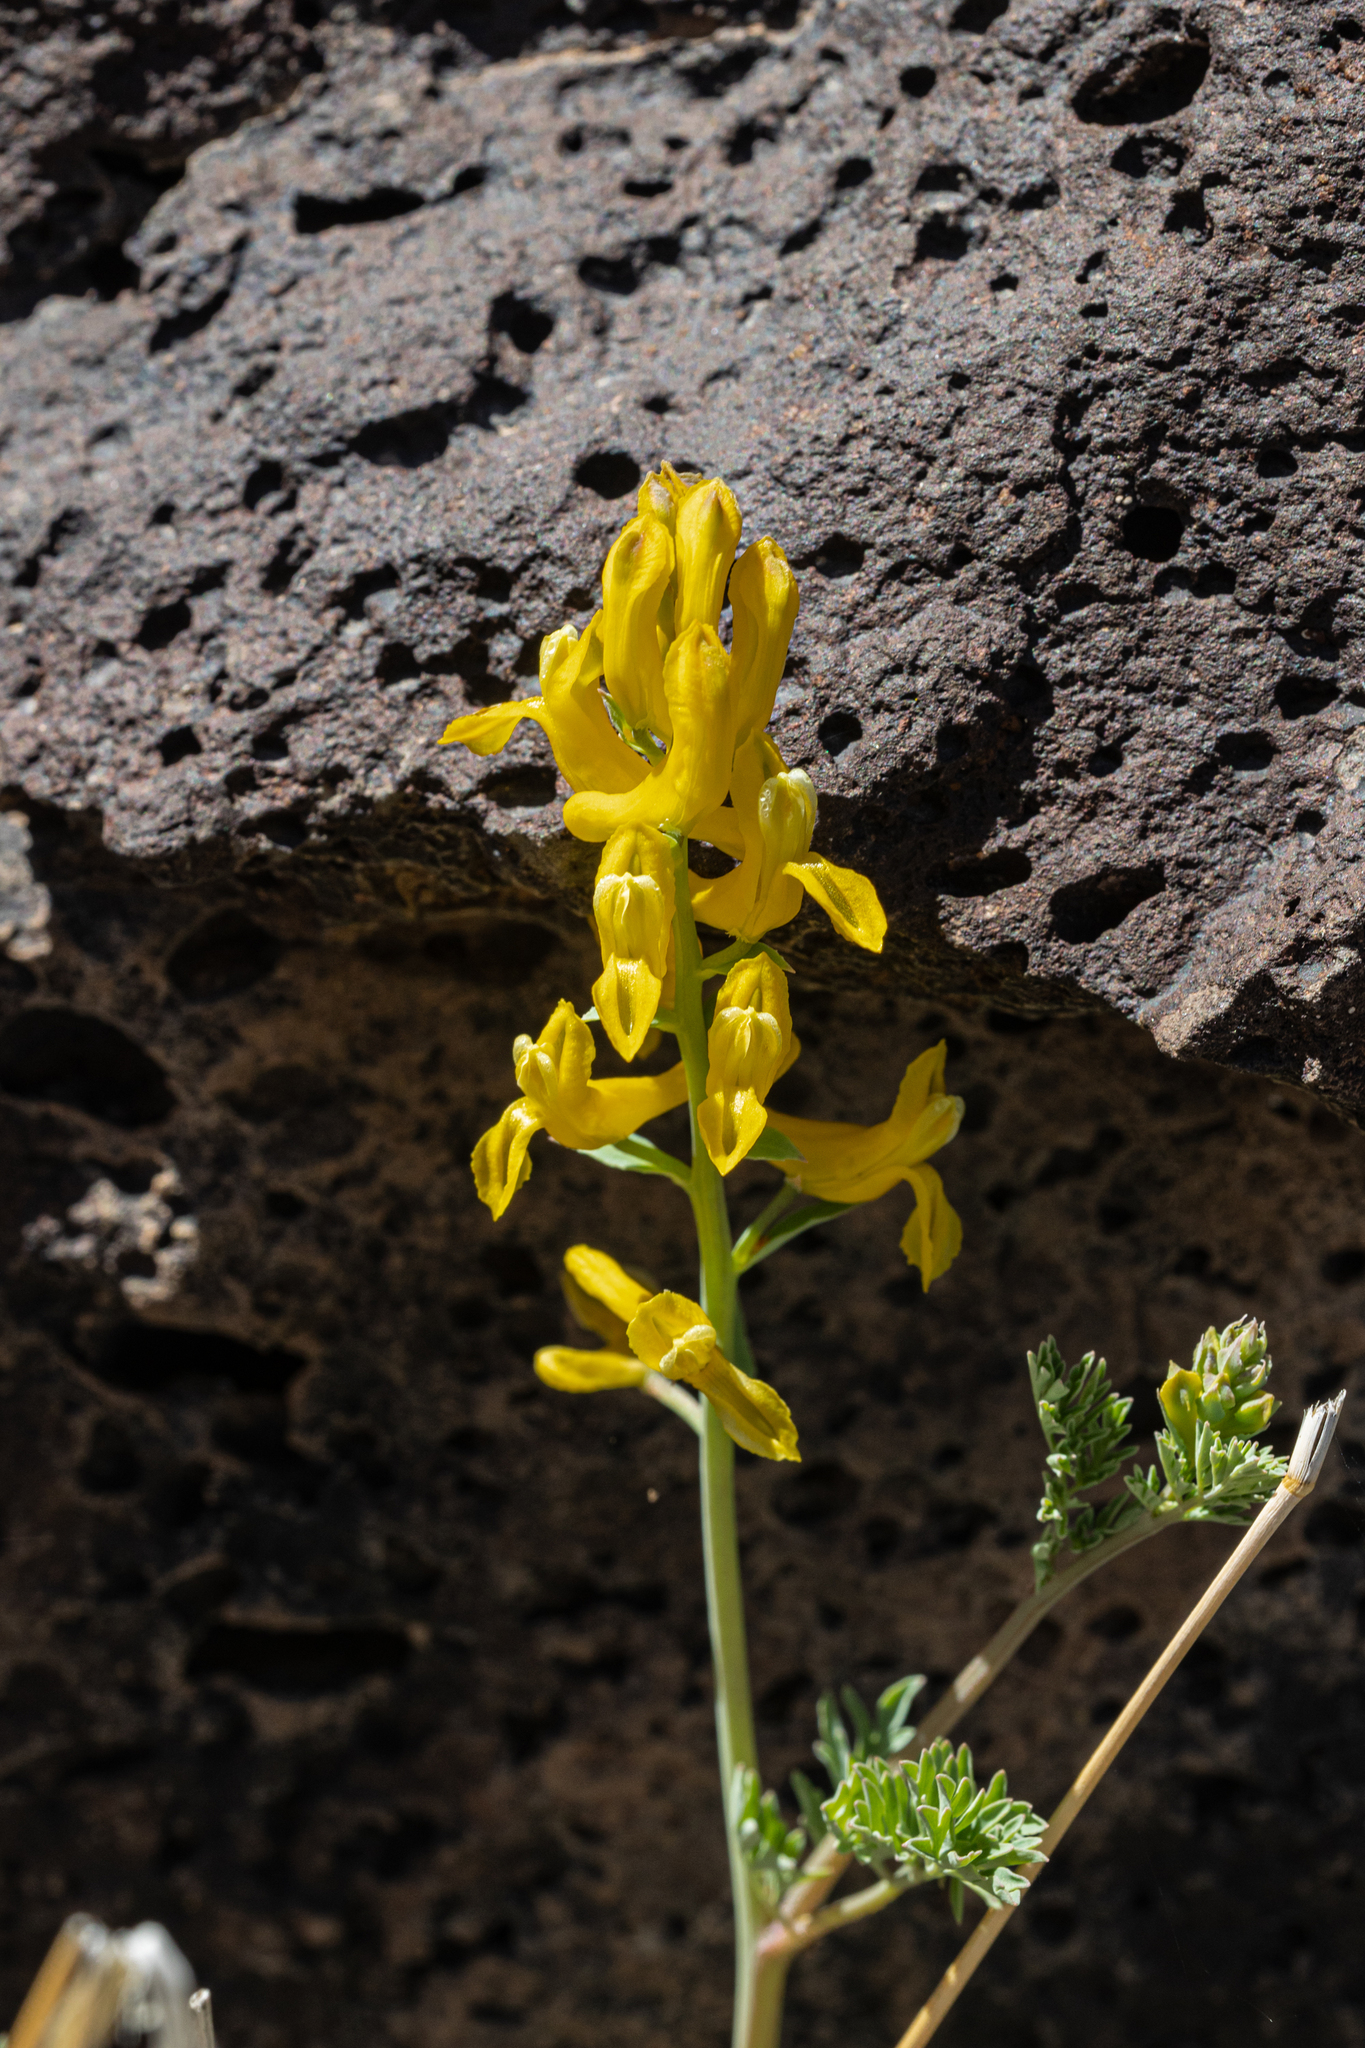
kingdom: Plantae
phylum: Tracheophyta
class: Magnoliopsida
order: Ranunculales
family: Papaveraceae
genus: Corydalis
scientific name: Corydalis aurea
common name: Golden corydalis
